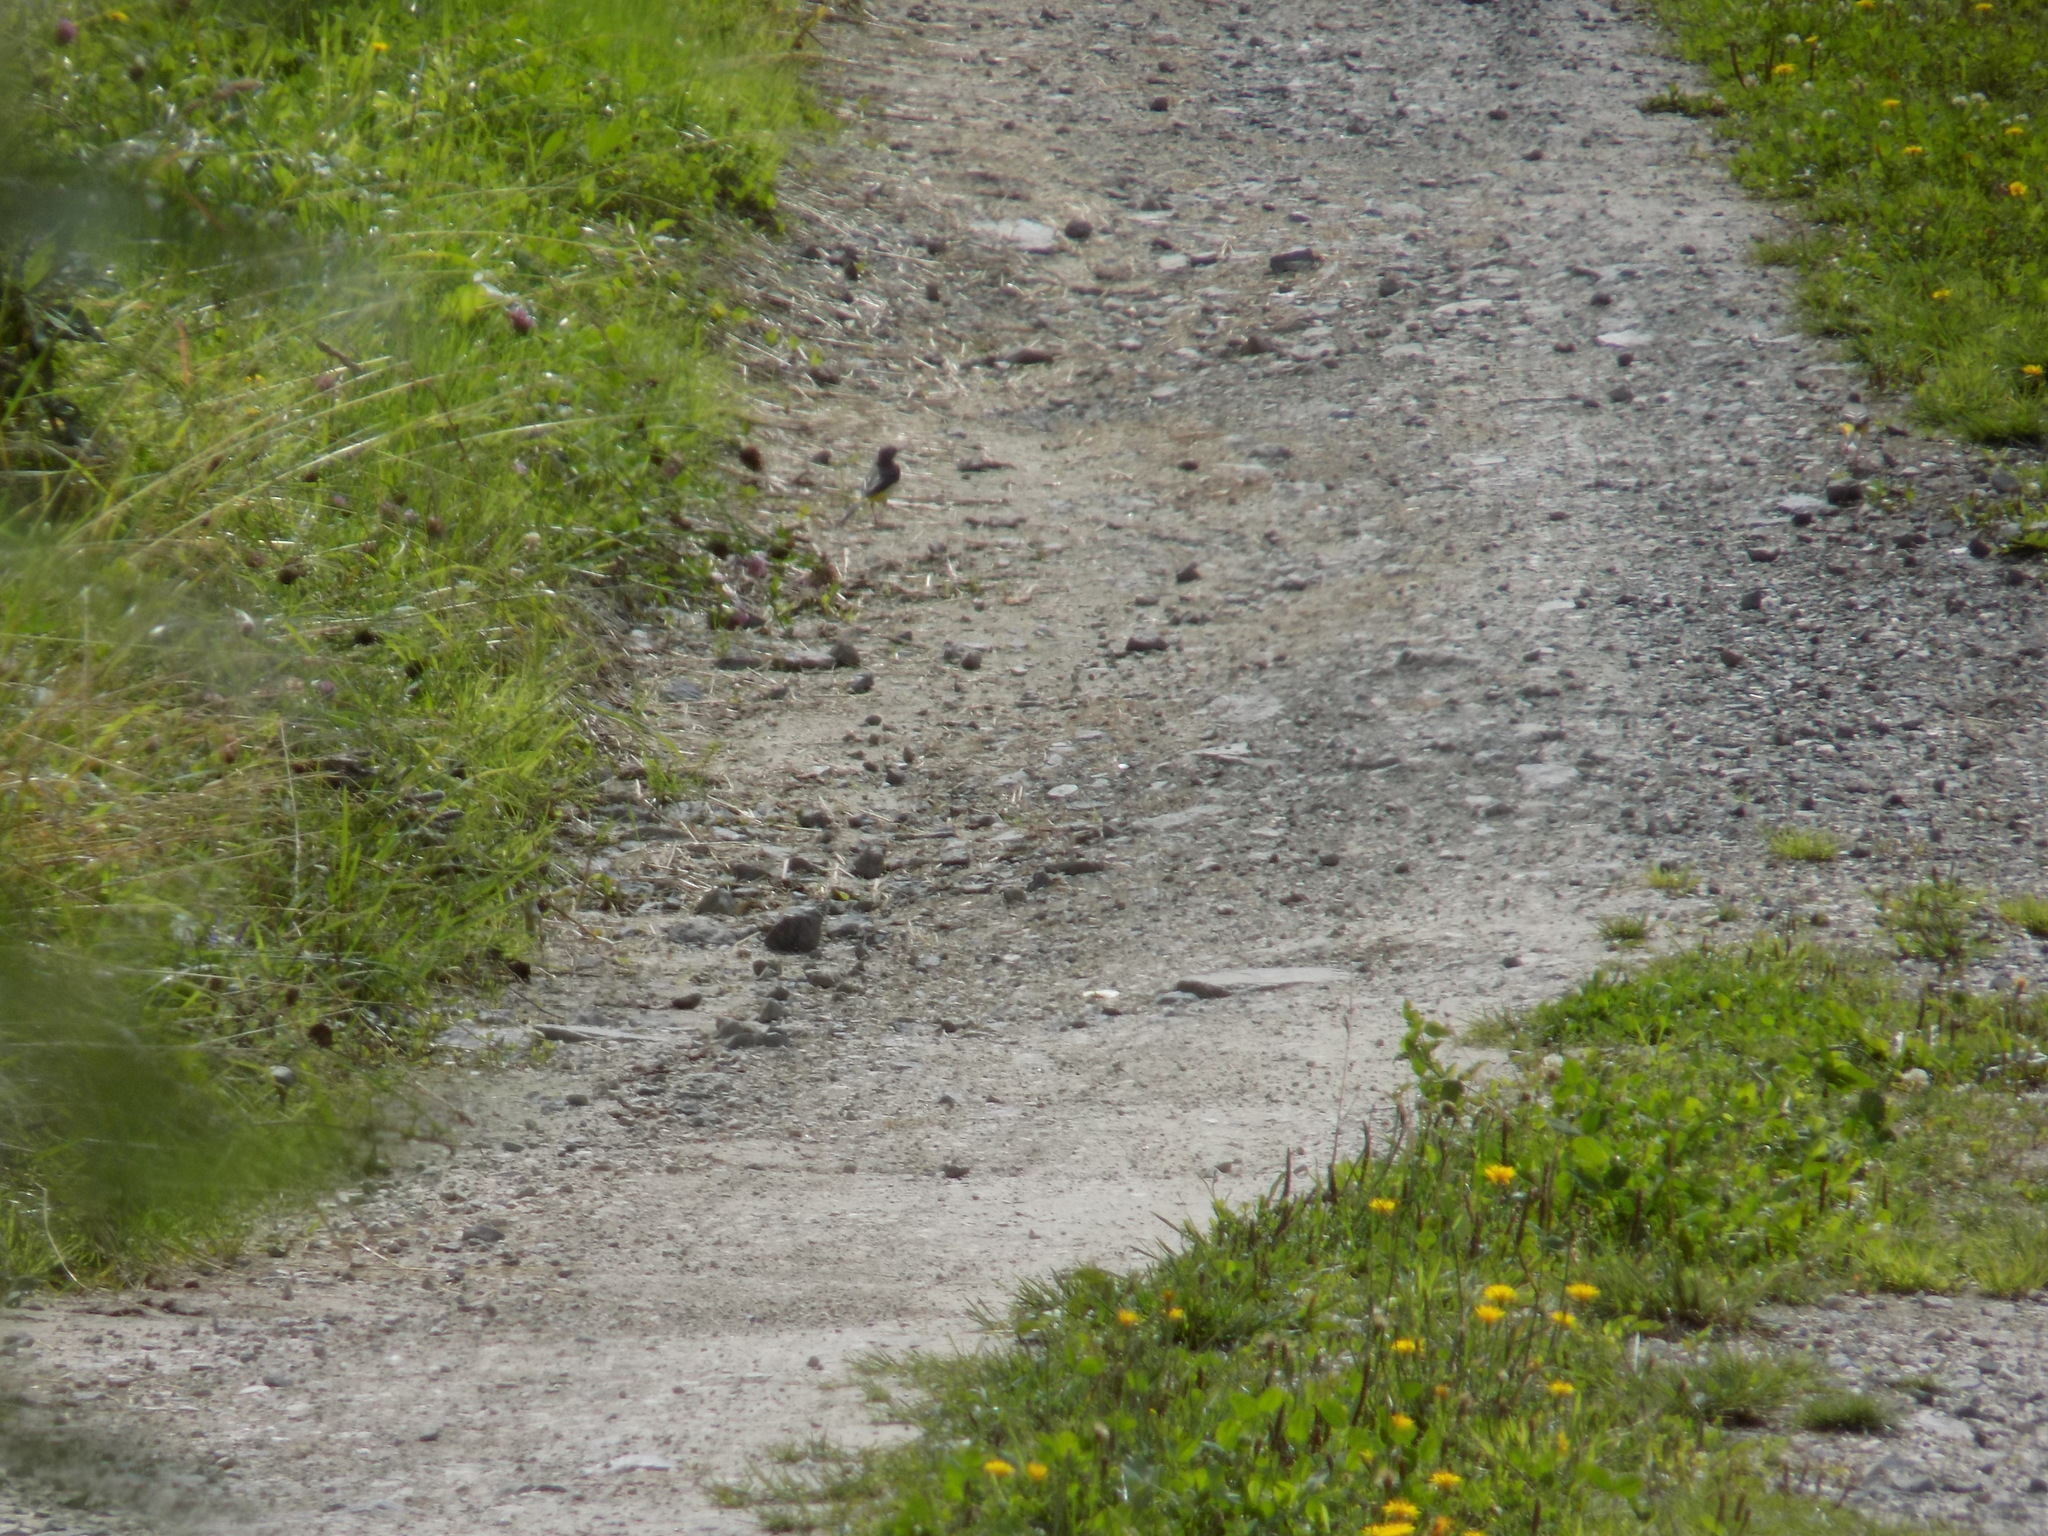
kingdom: Animalia
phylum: Chordata
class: Aves
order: Passeriformes
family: Motacillidae
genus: Motacilla
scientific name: Motacilla cinerea
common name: Grey wagtail
